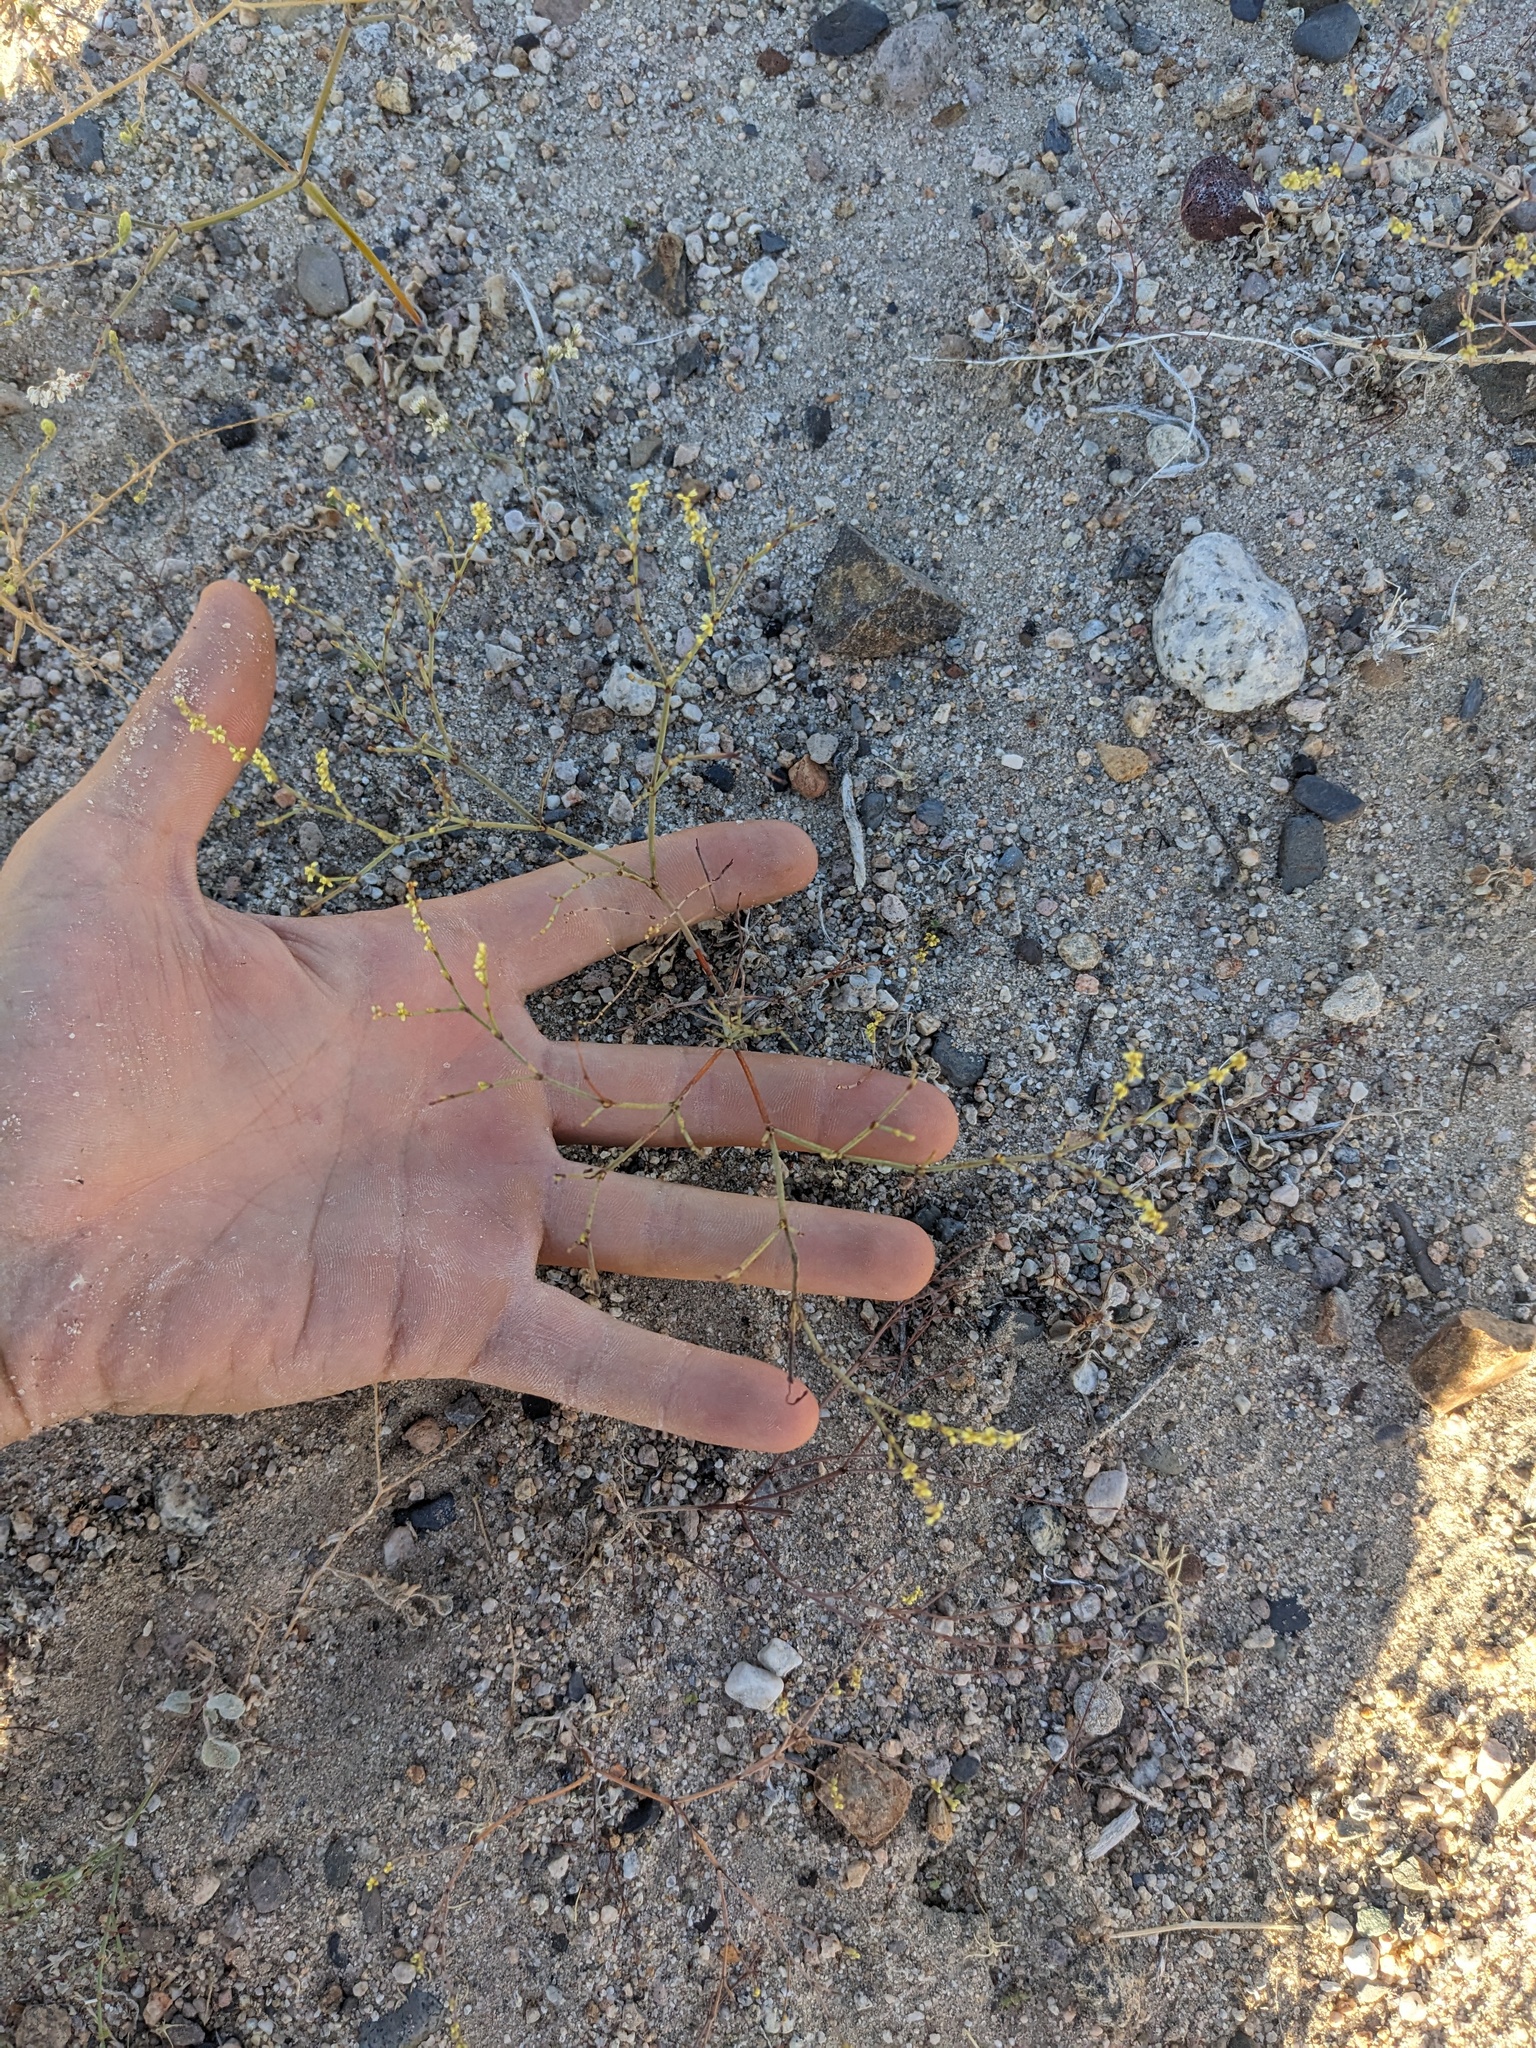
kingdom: Plantae
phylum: Tracheophyta
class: Magnoliopsida
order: Caryophyllales
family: Polygonaceae
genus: Eriogonum
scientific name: Eriogonum brachyanthum
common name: Short-flower wild buckwheat
